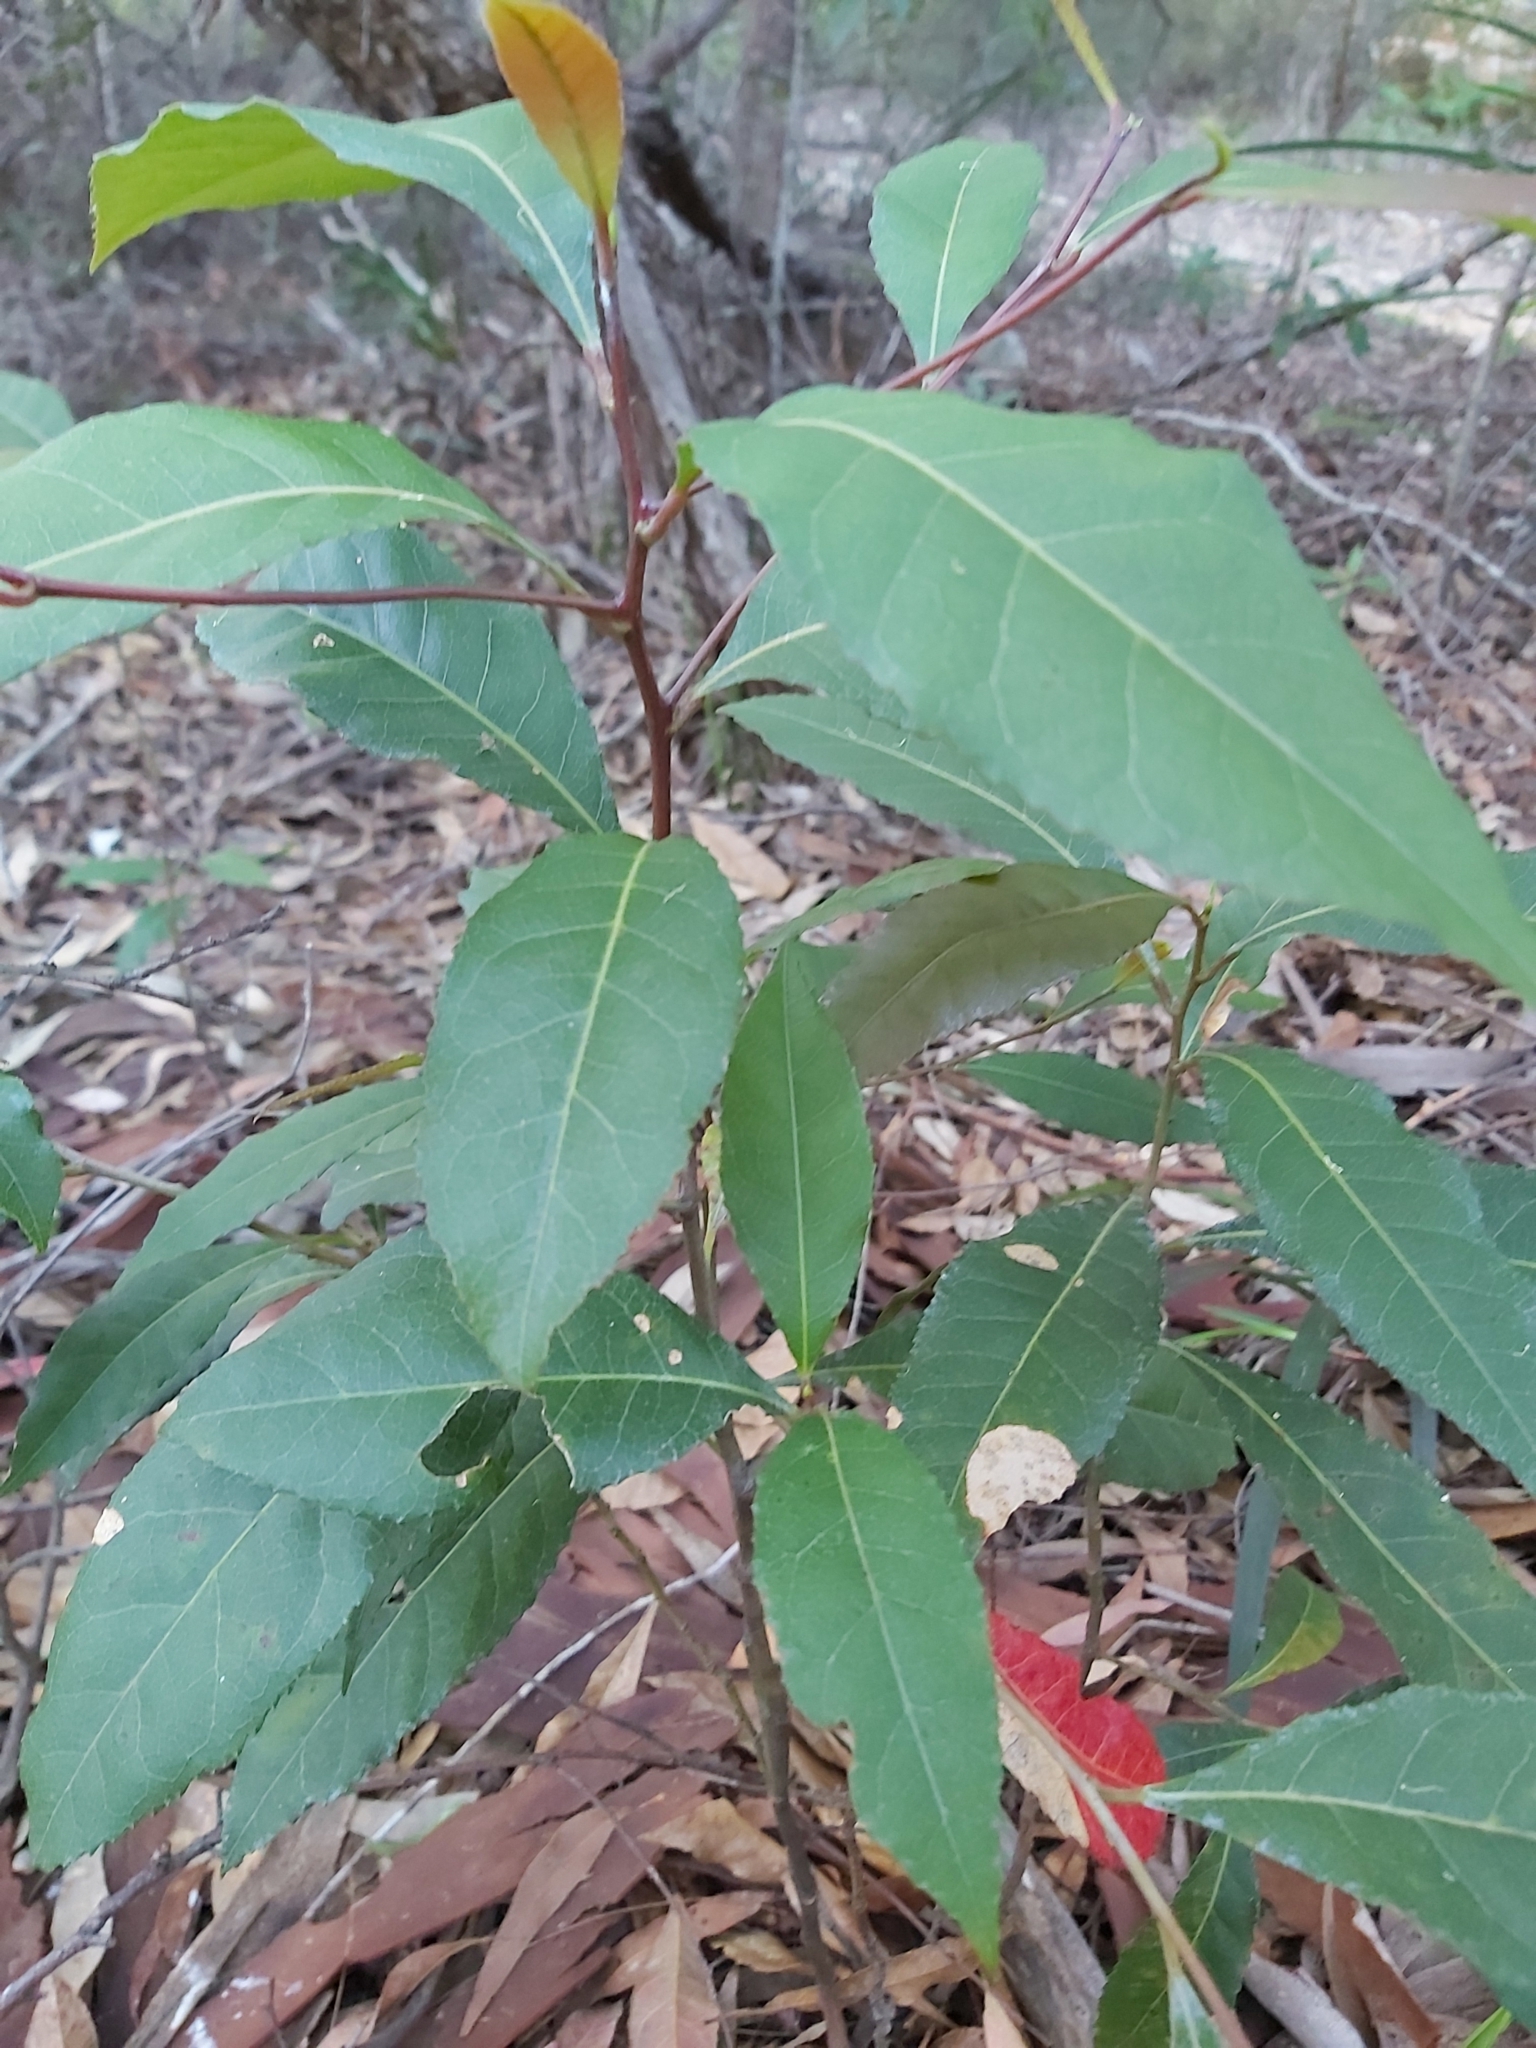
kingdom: Plantae
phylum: Tracheophyta
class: Magnoliopsida
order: Oxalidales
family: Elaeocarpaceae
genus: Elaeocarpus
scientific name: Elaeocarpus reticulatus
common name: Ash quandong
